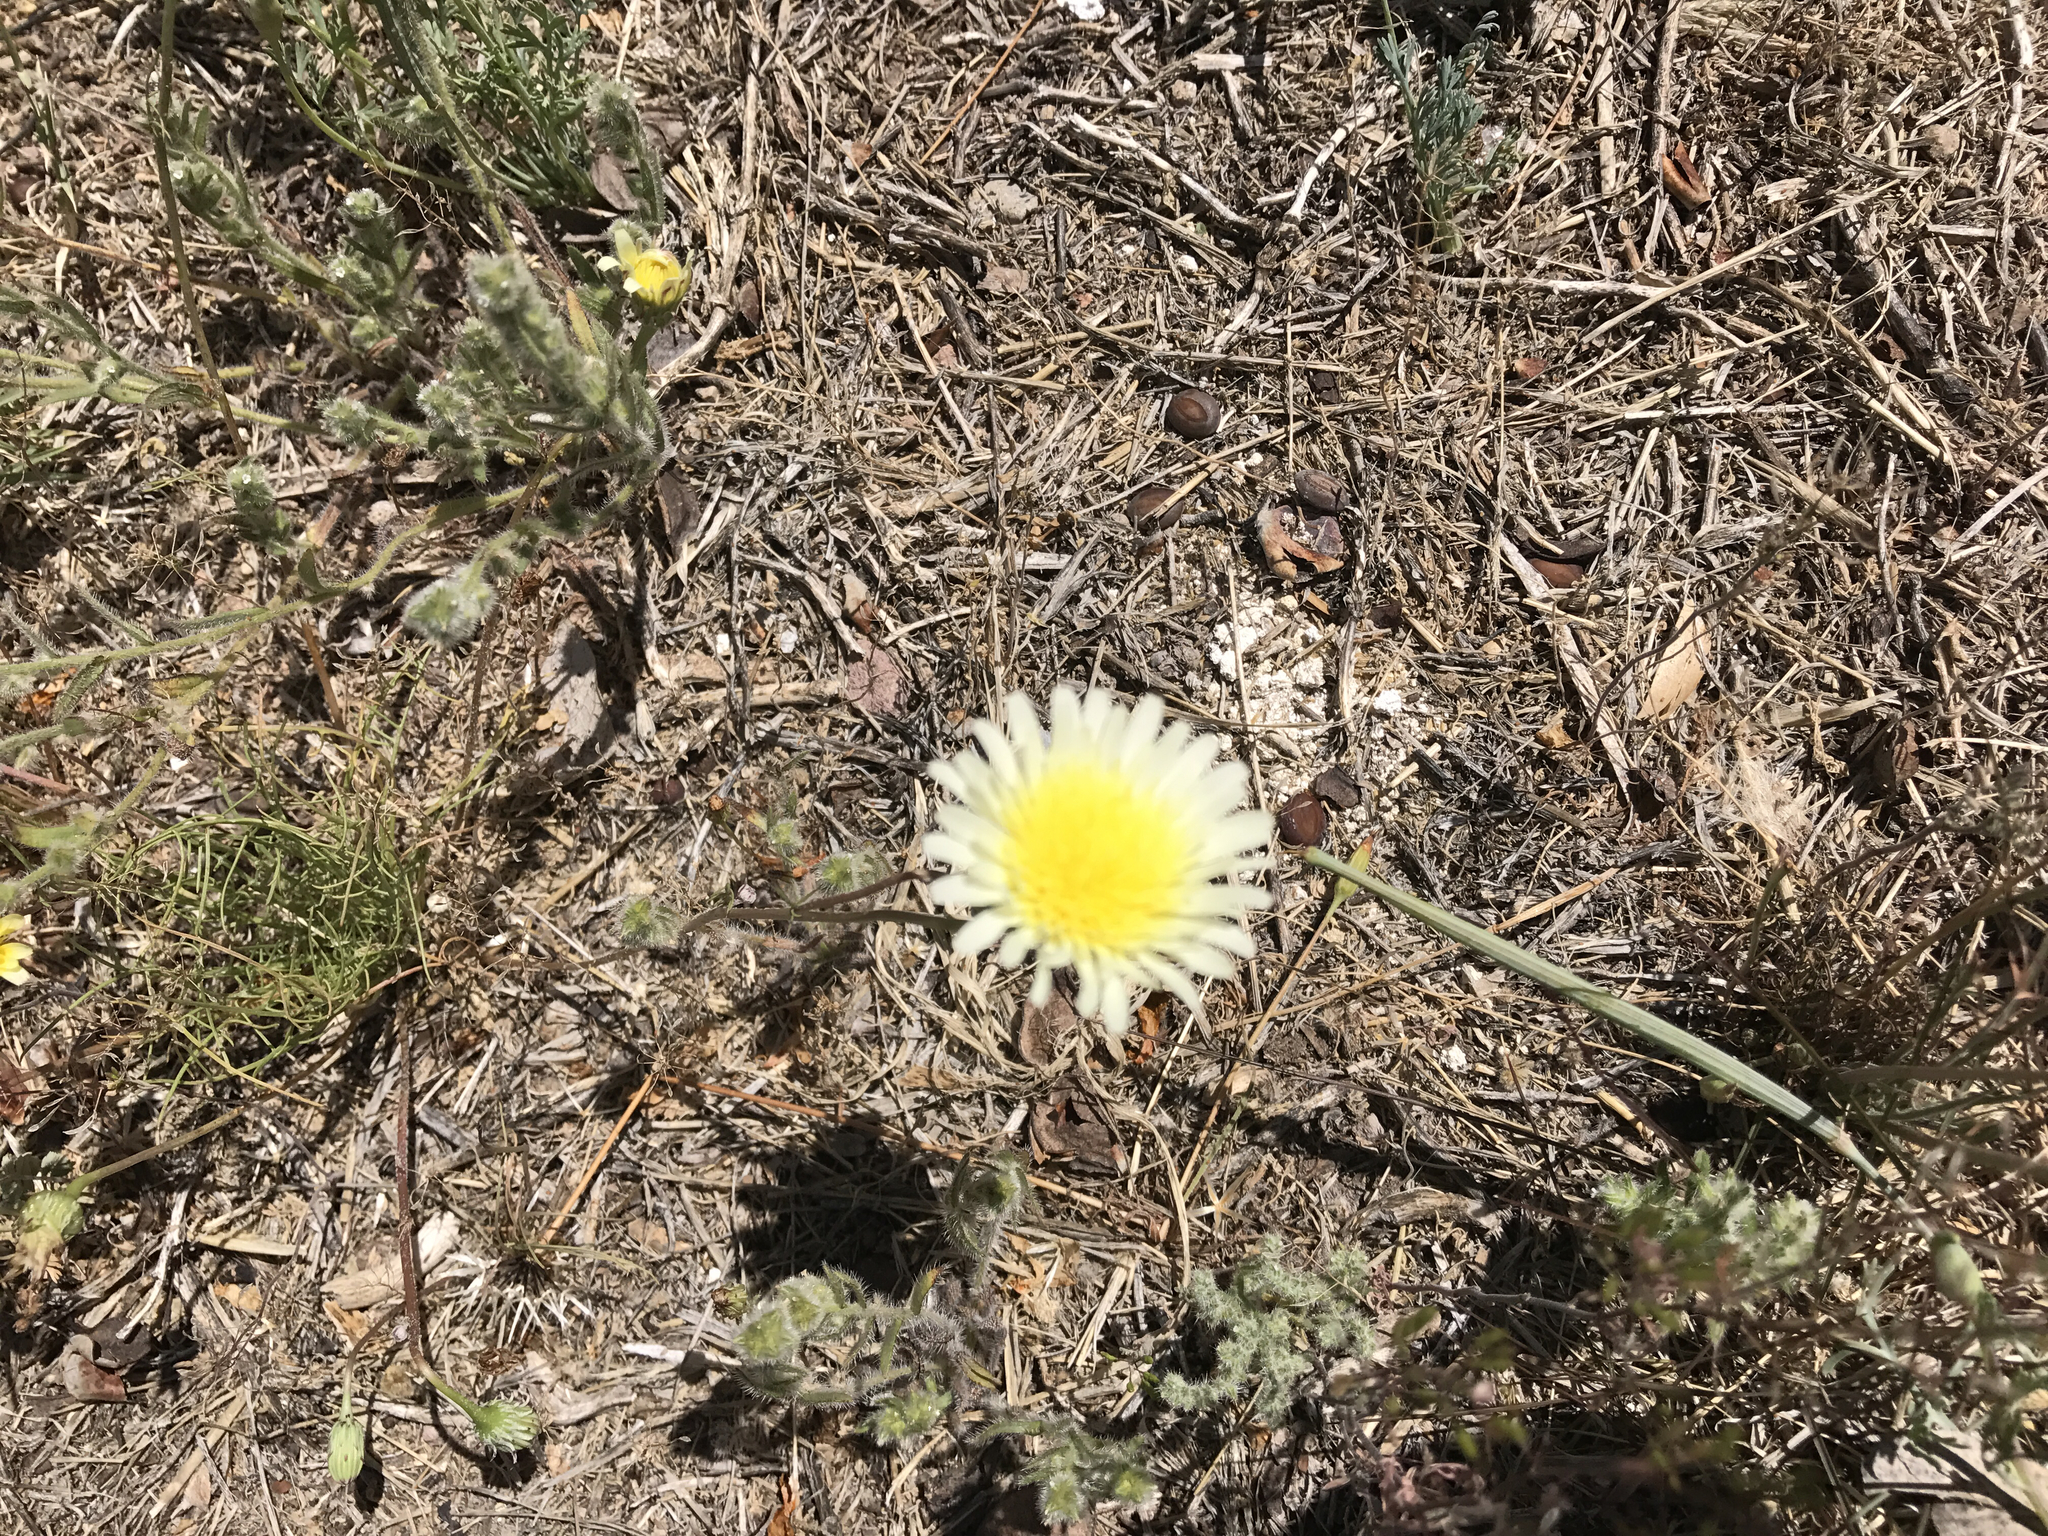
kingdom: Plantae
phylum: Tracheophyta
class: Magnoliopsida
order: Asterales
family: Asteraceae
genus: Malacothrix
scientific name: Malacothrix glabrata
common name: Smooth desert-dandelion
